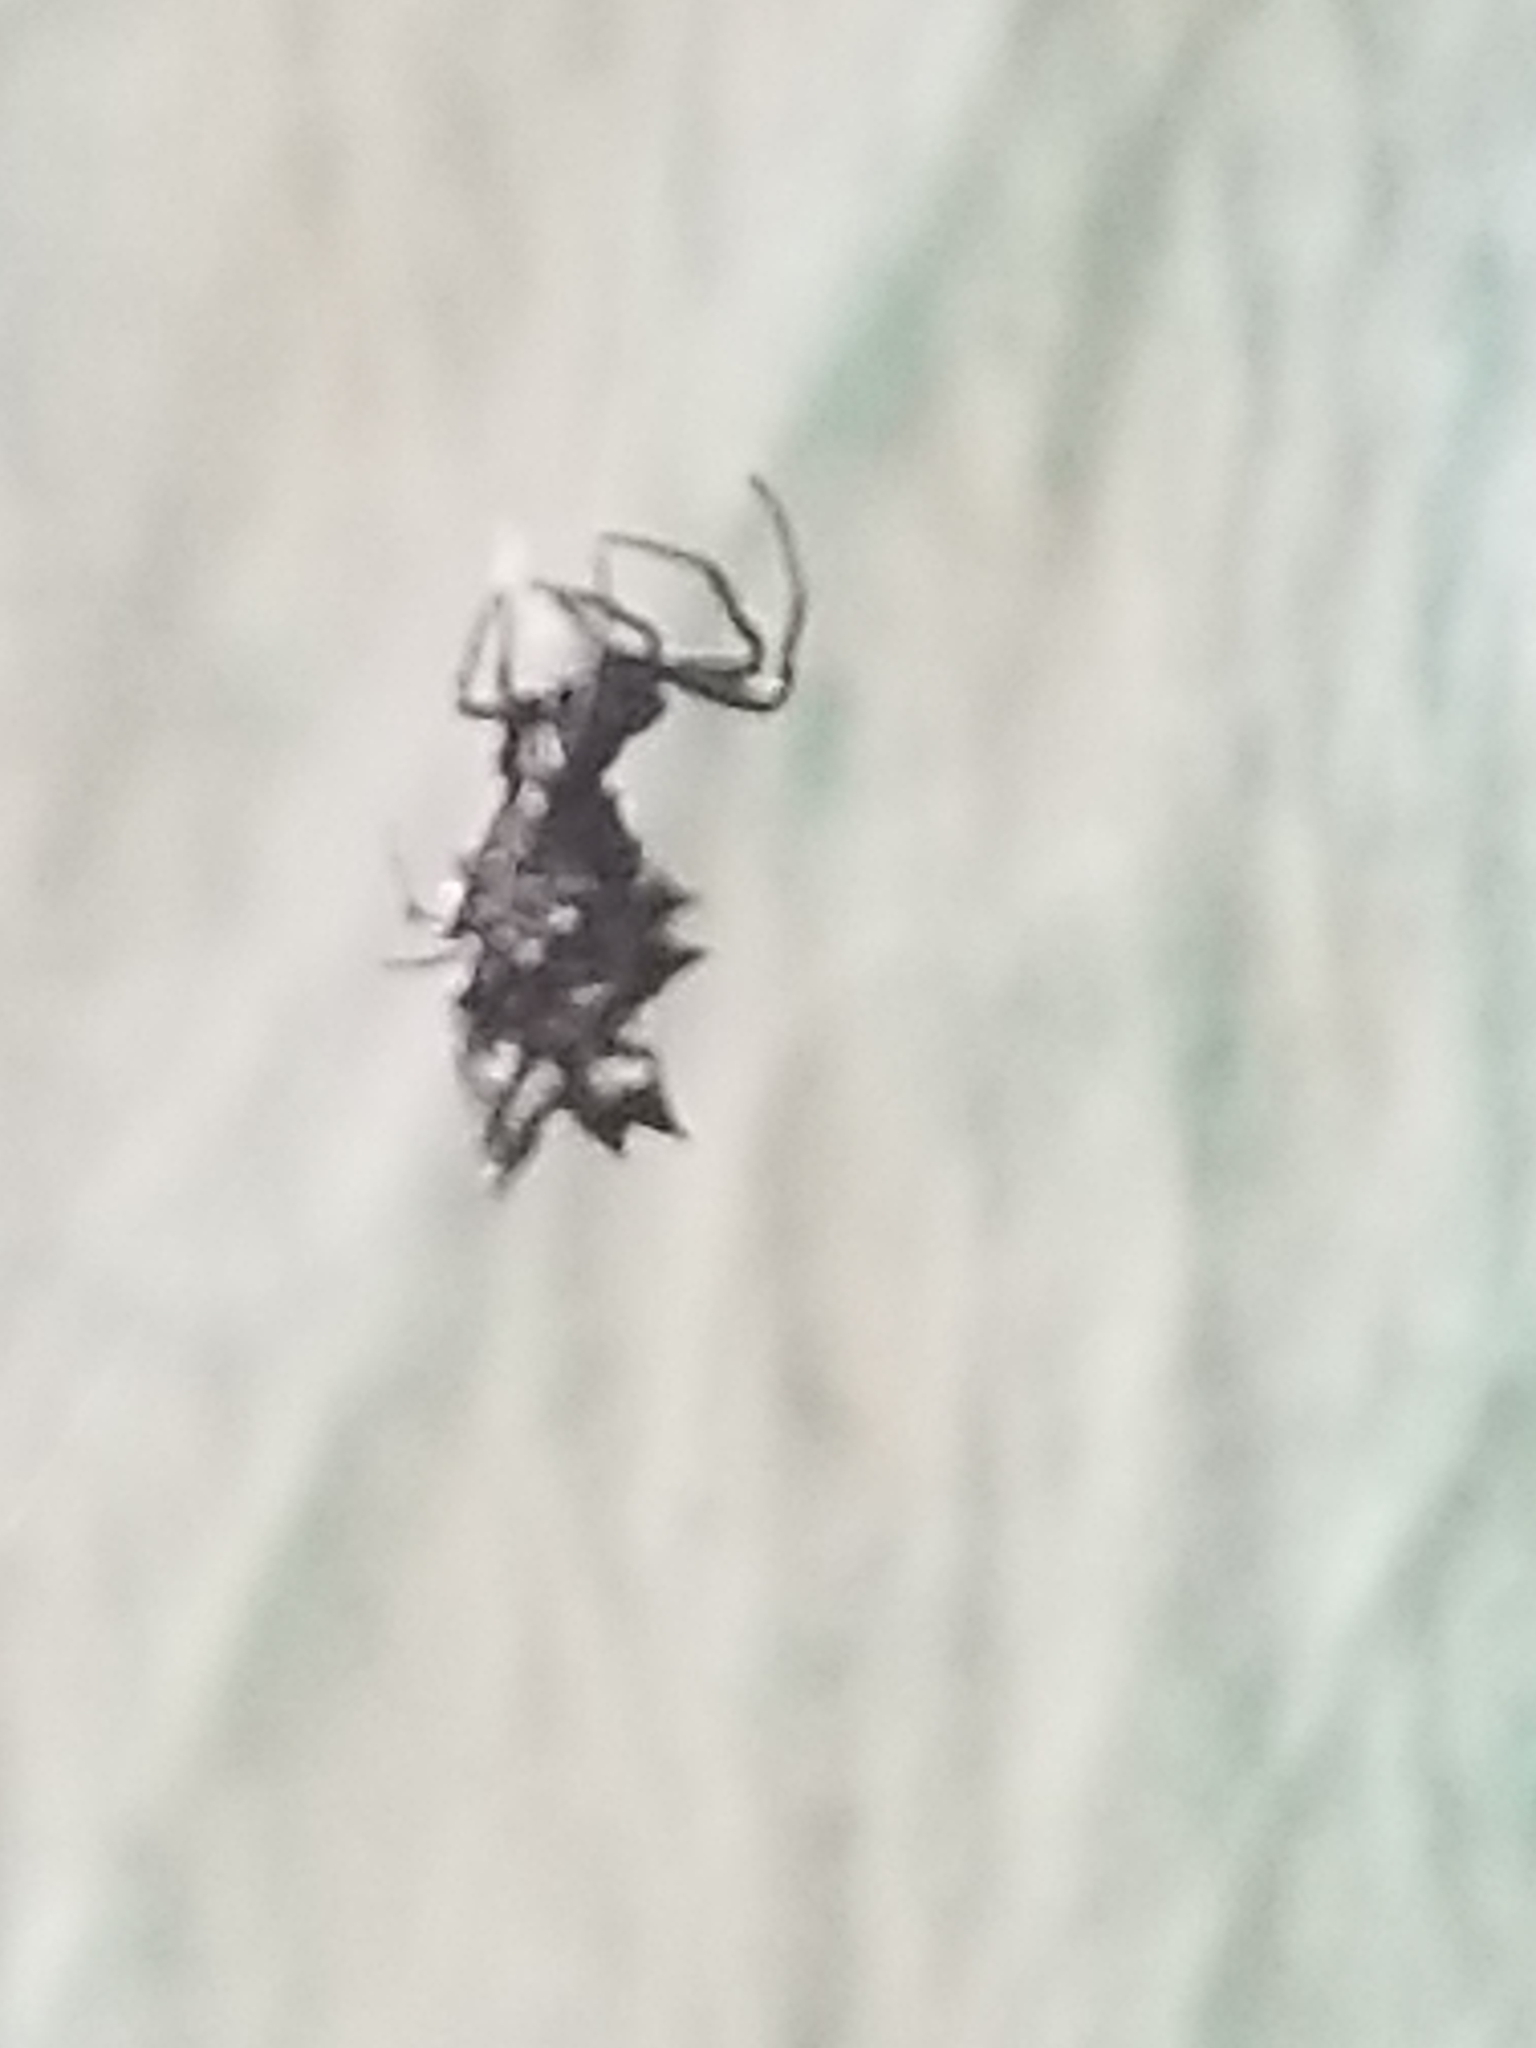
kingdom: Animalia
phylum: Arthropoda
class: Arachnida
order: Araneae
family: Araneidae
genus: Micrathena
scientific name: Micrathena gracilis
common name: Orb weavers
